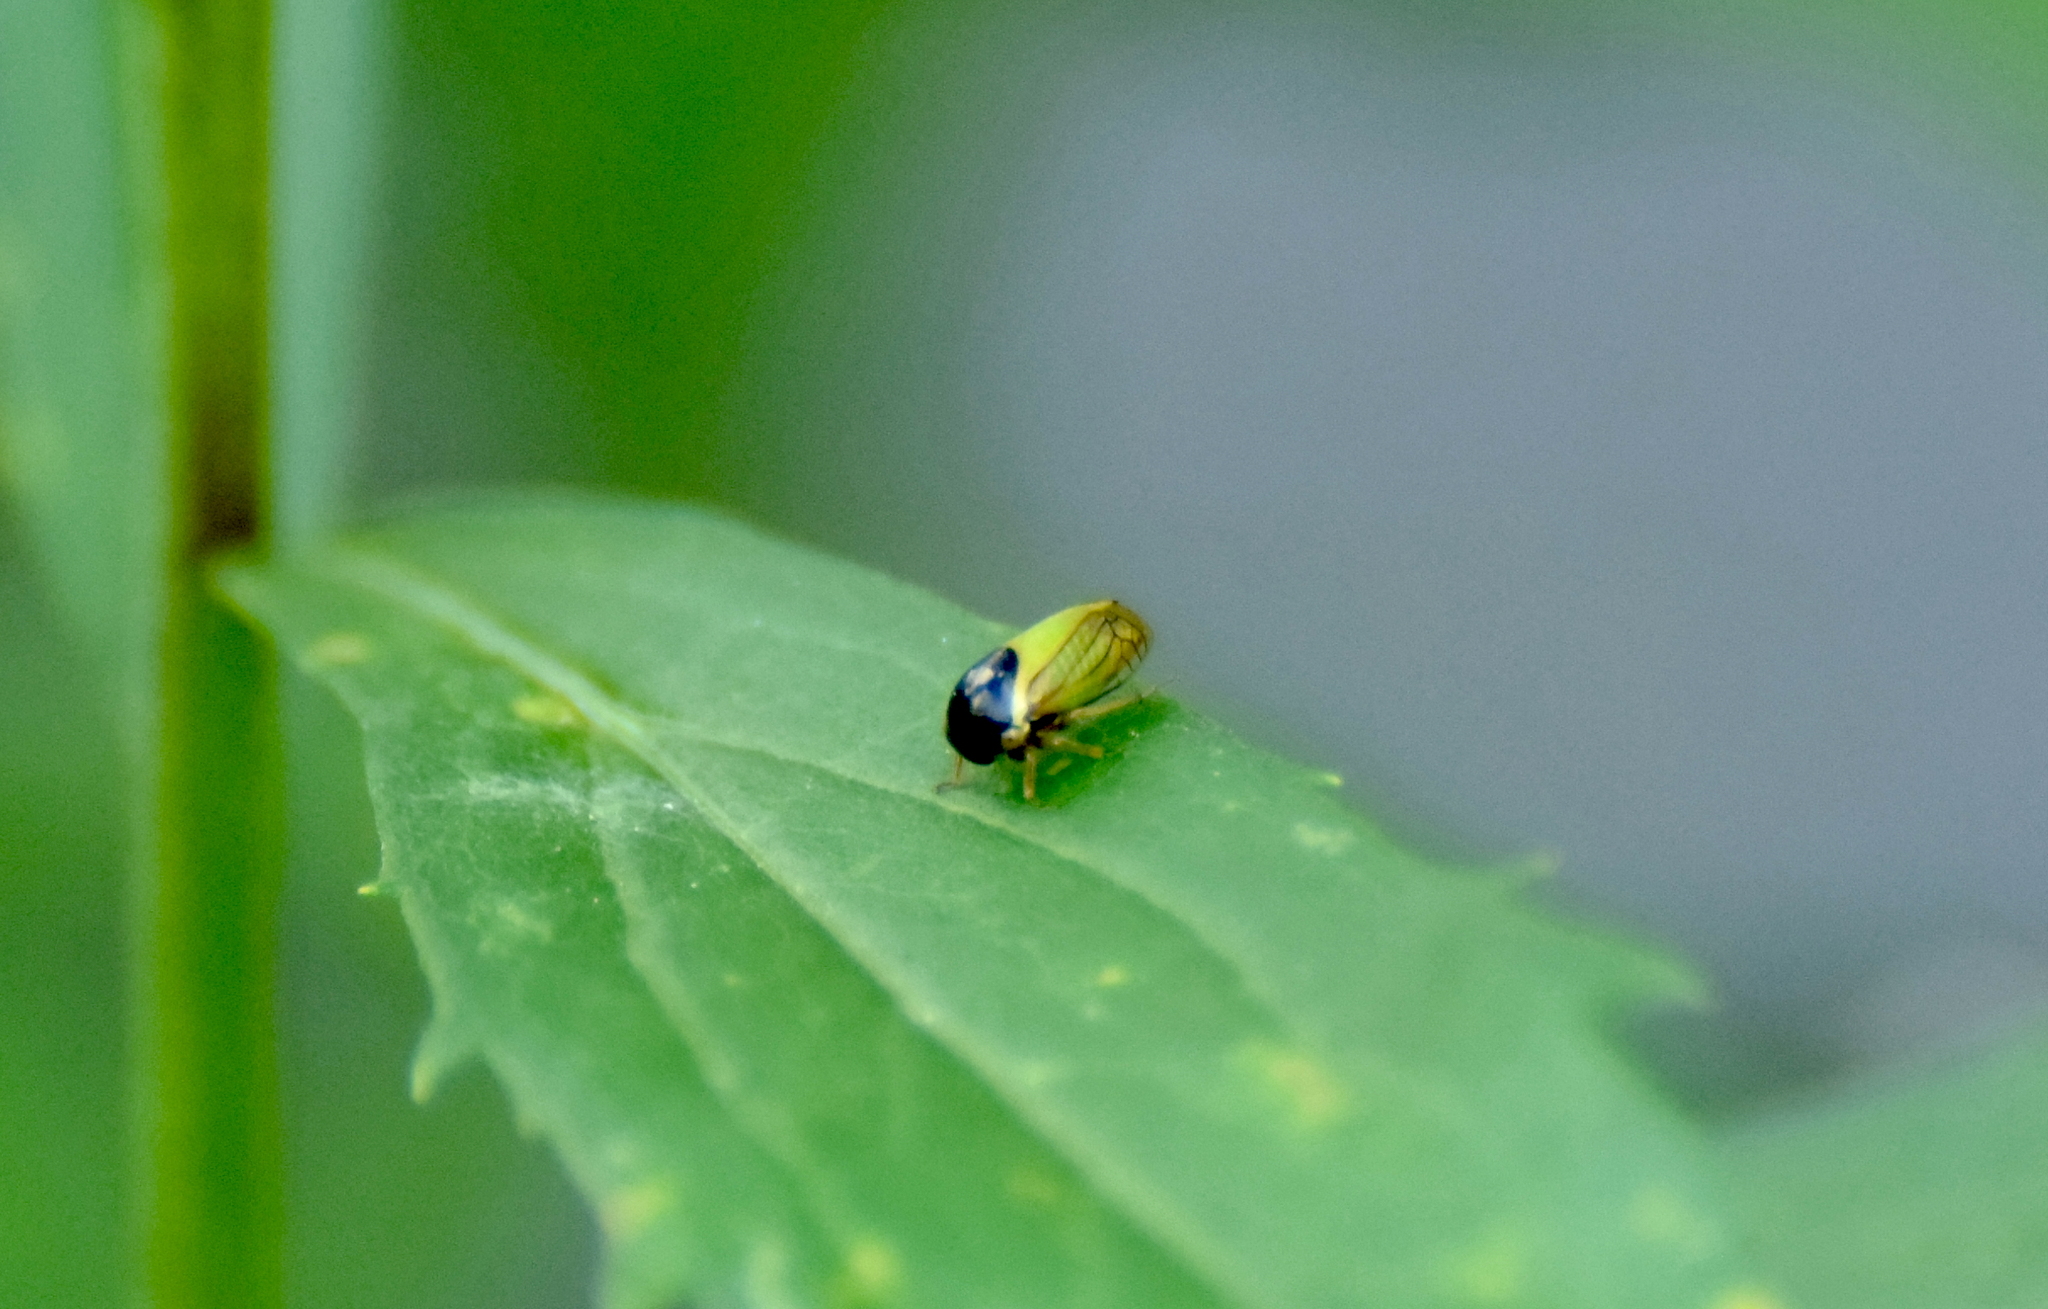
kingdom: Animalia
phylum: Arthropoda
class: Insecta
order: Hemiptera
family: Membracidae
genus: Acutalis
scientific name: Acutalis tartarea
